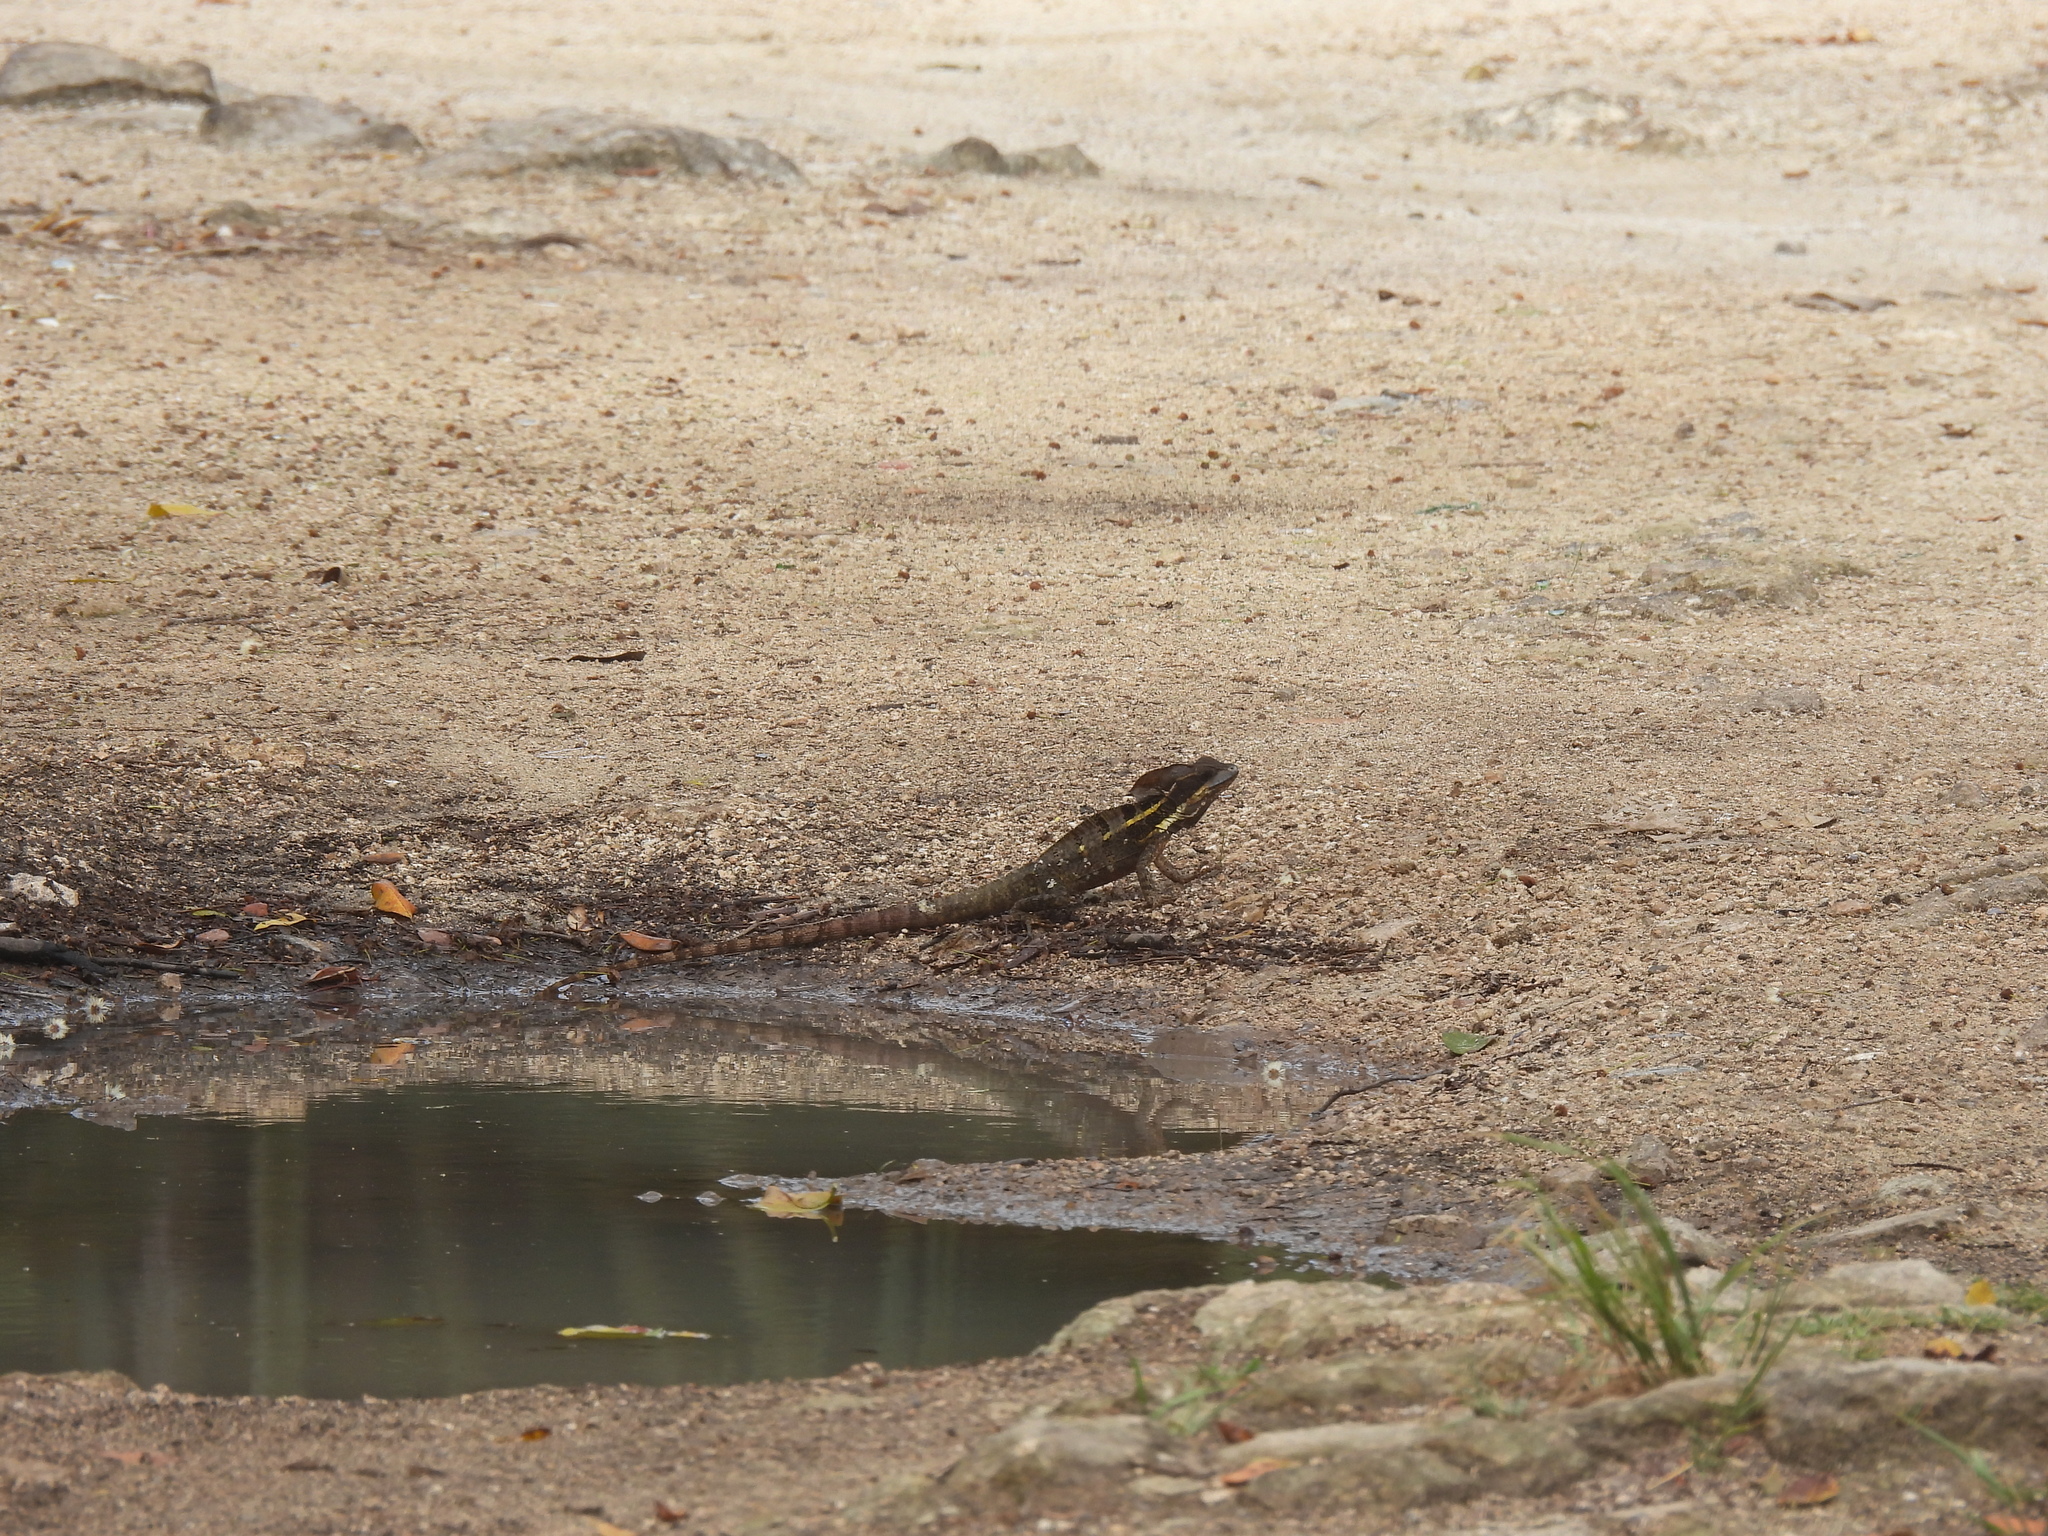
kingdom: Animalia
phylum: Chordata
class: Squamata
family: Corytophanidae
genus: Basiliscus
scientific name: Basiliscus vittatus
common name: Brown basilisk
